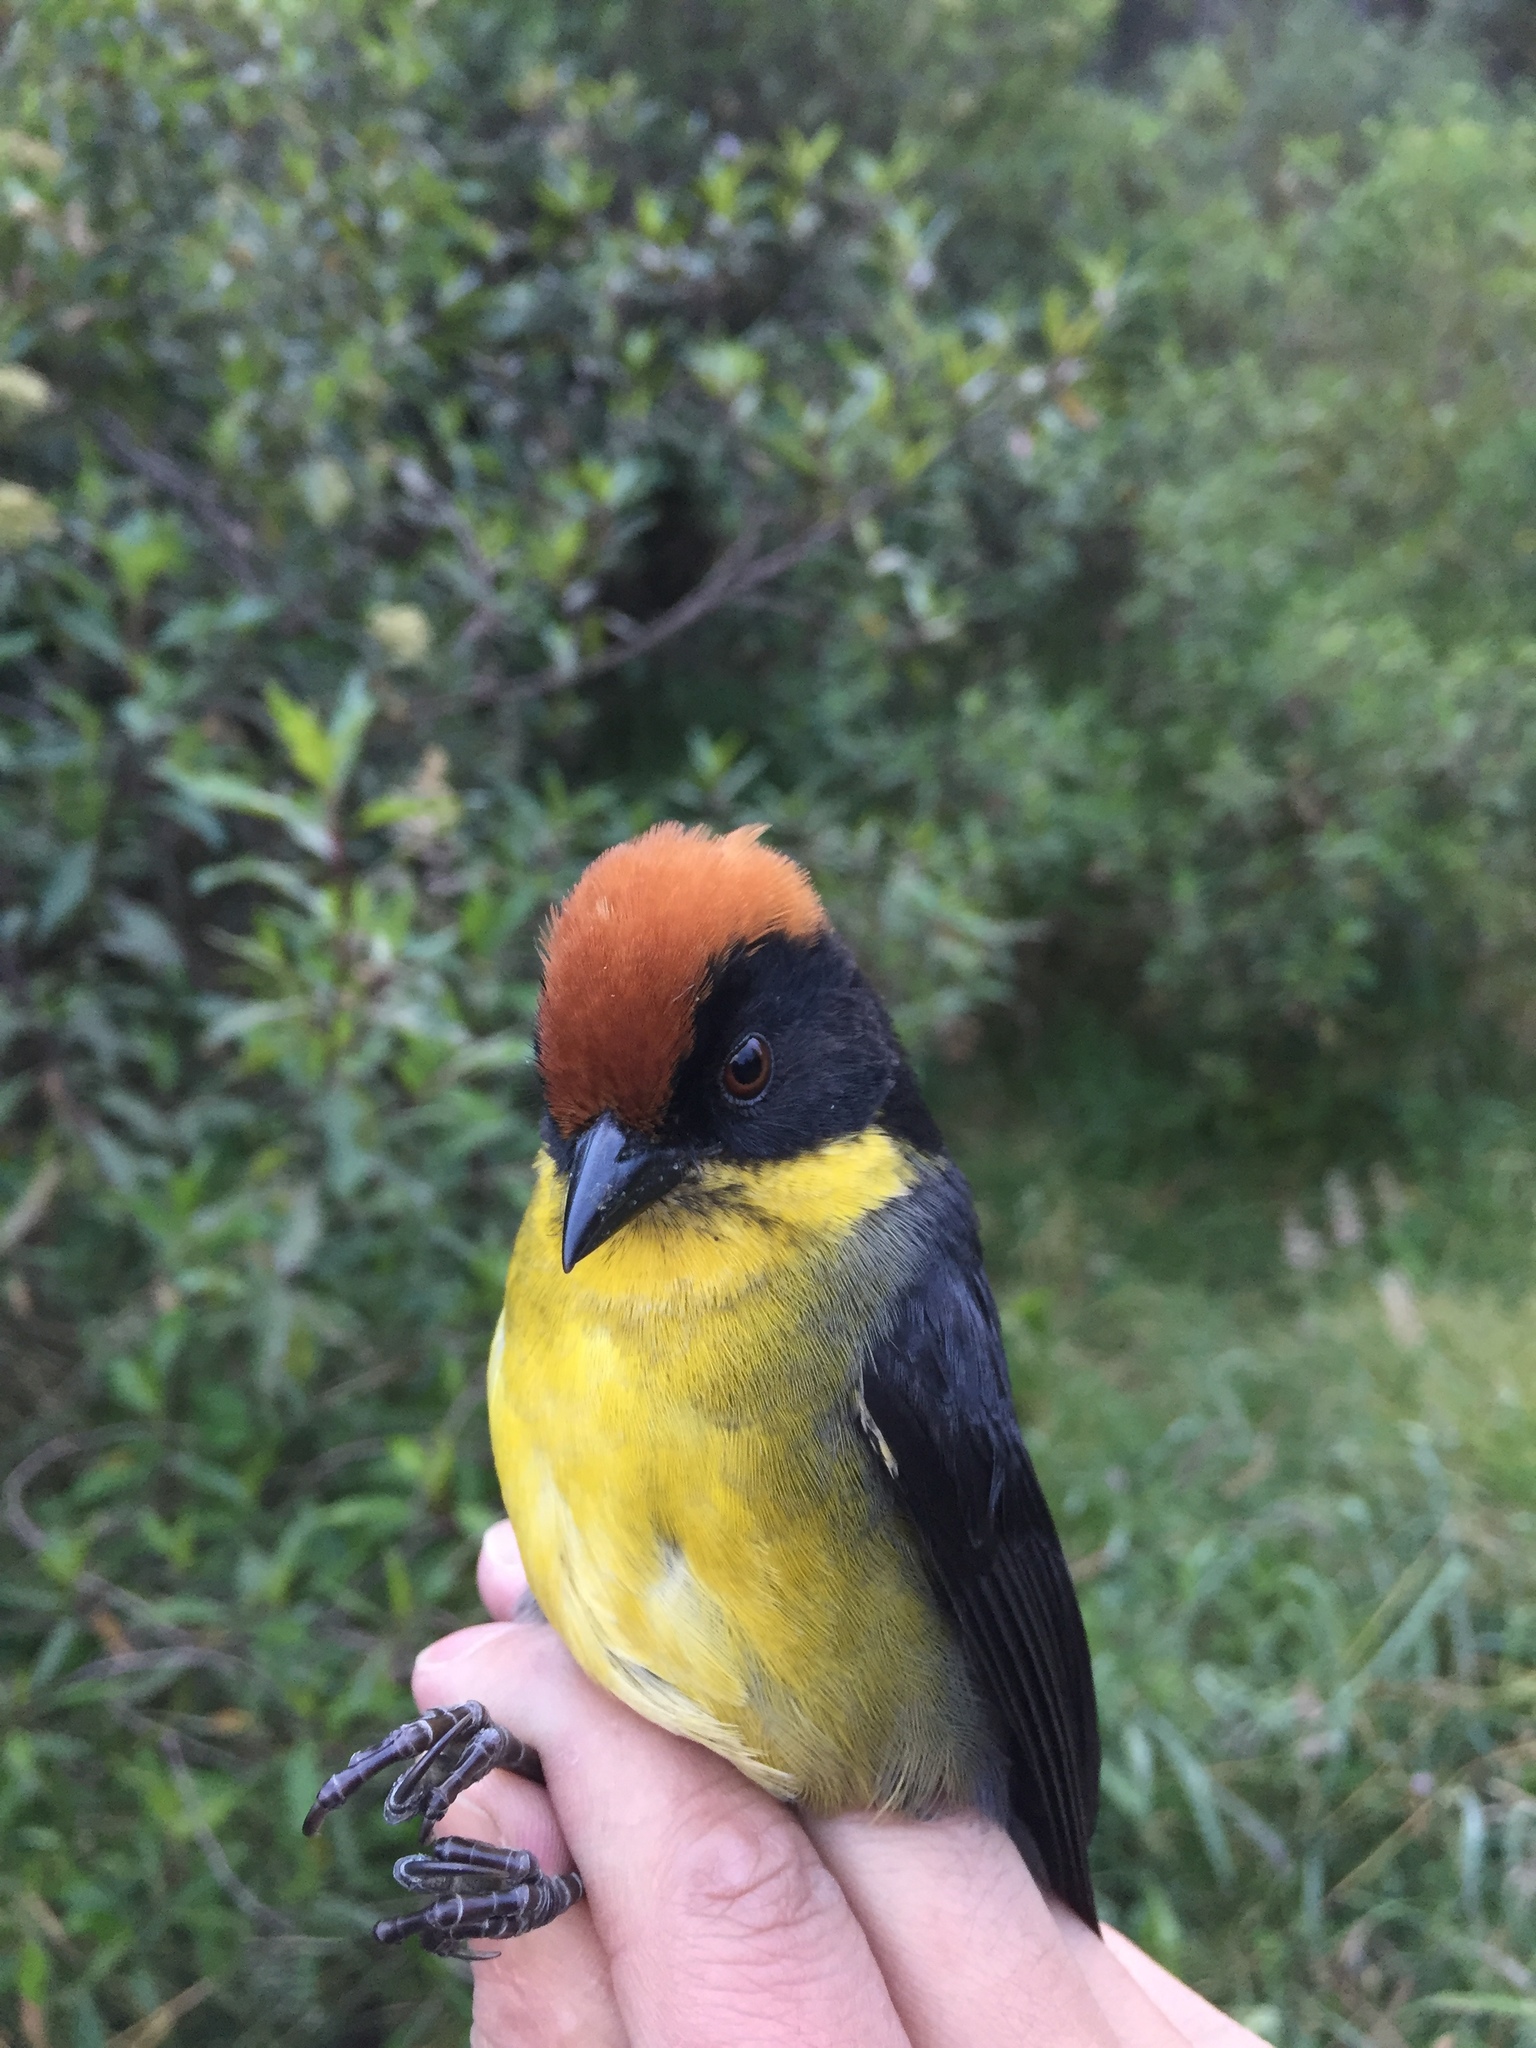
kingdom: Animalia
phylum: Chordata
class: Aves
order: Passeriformes
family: Passerellidae
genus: Atlapetes
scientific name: Atlapetes latinuchus
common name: Yellow-breasted brushfinch
